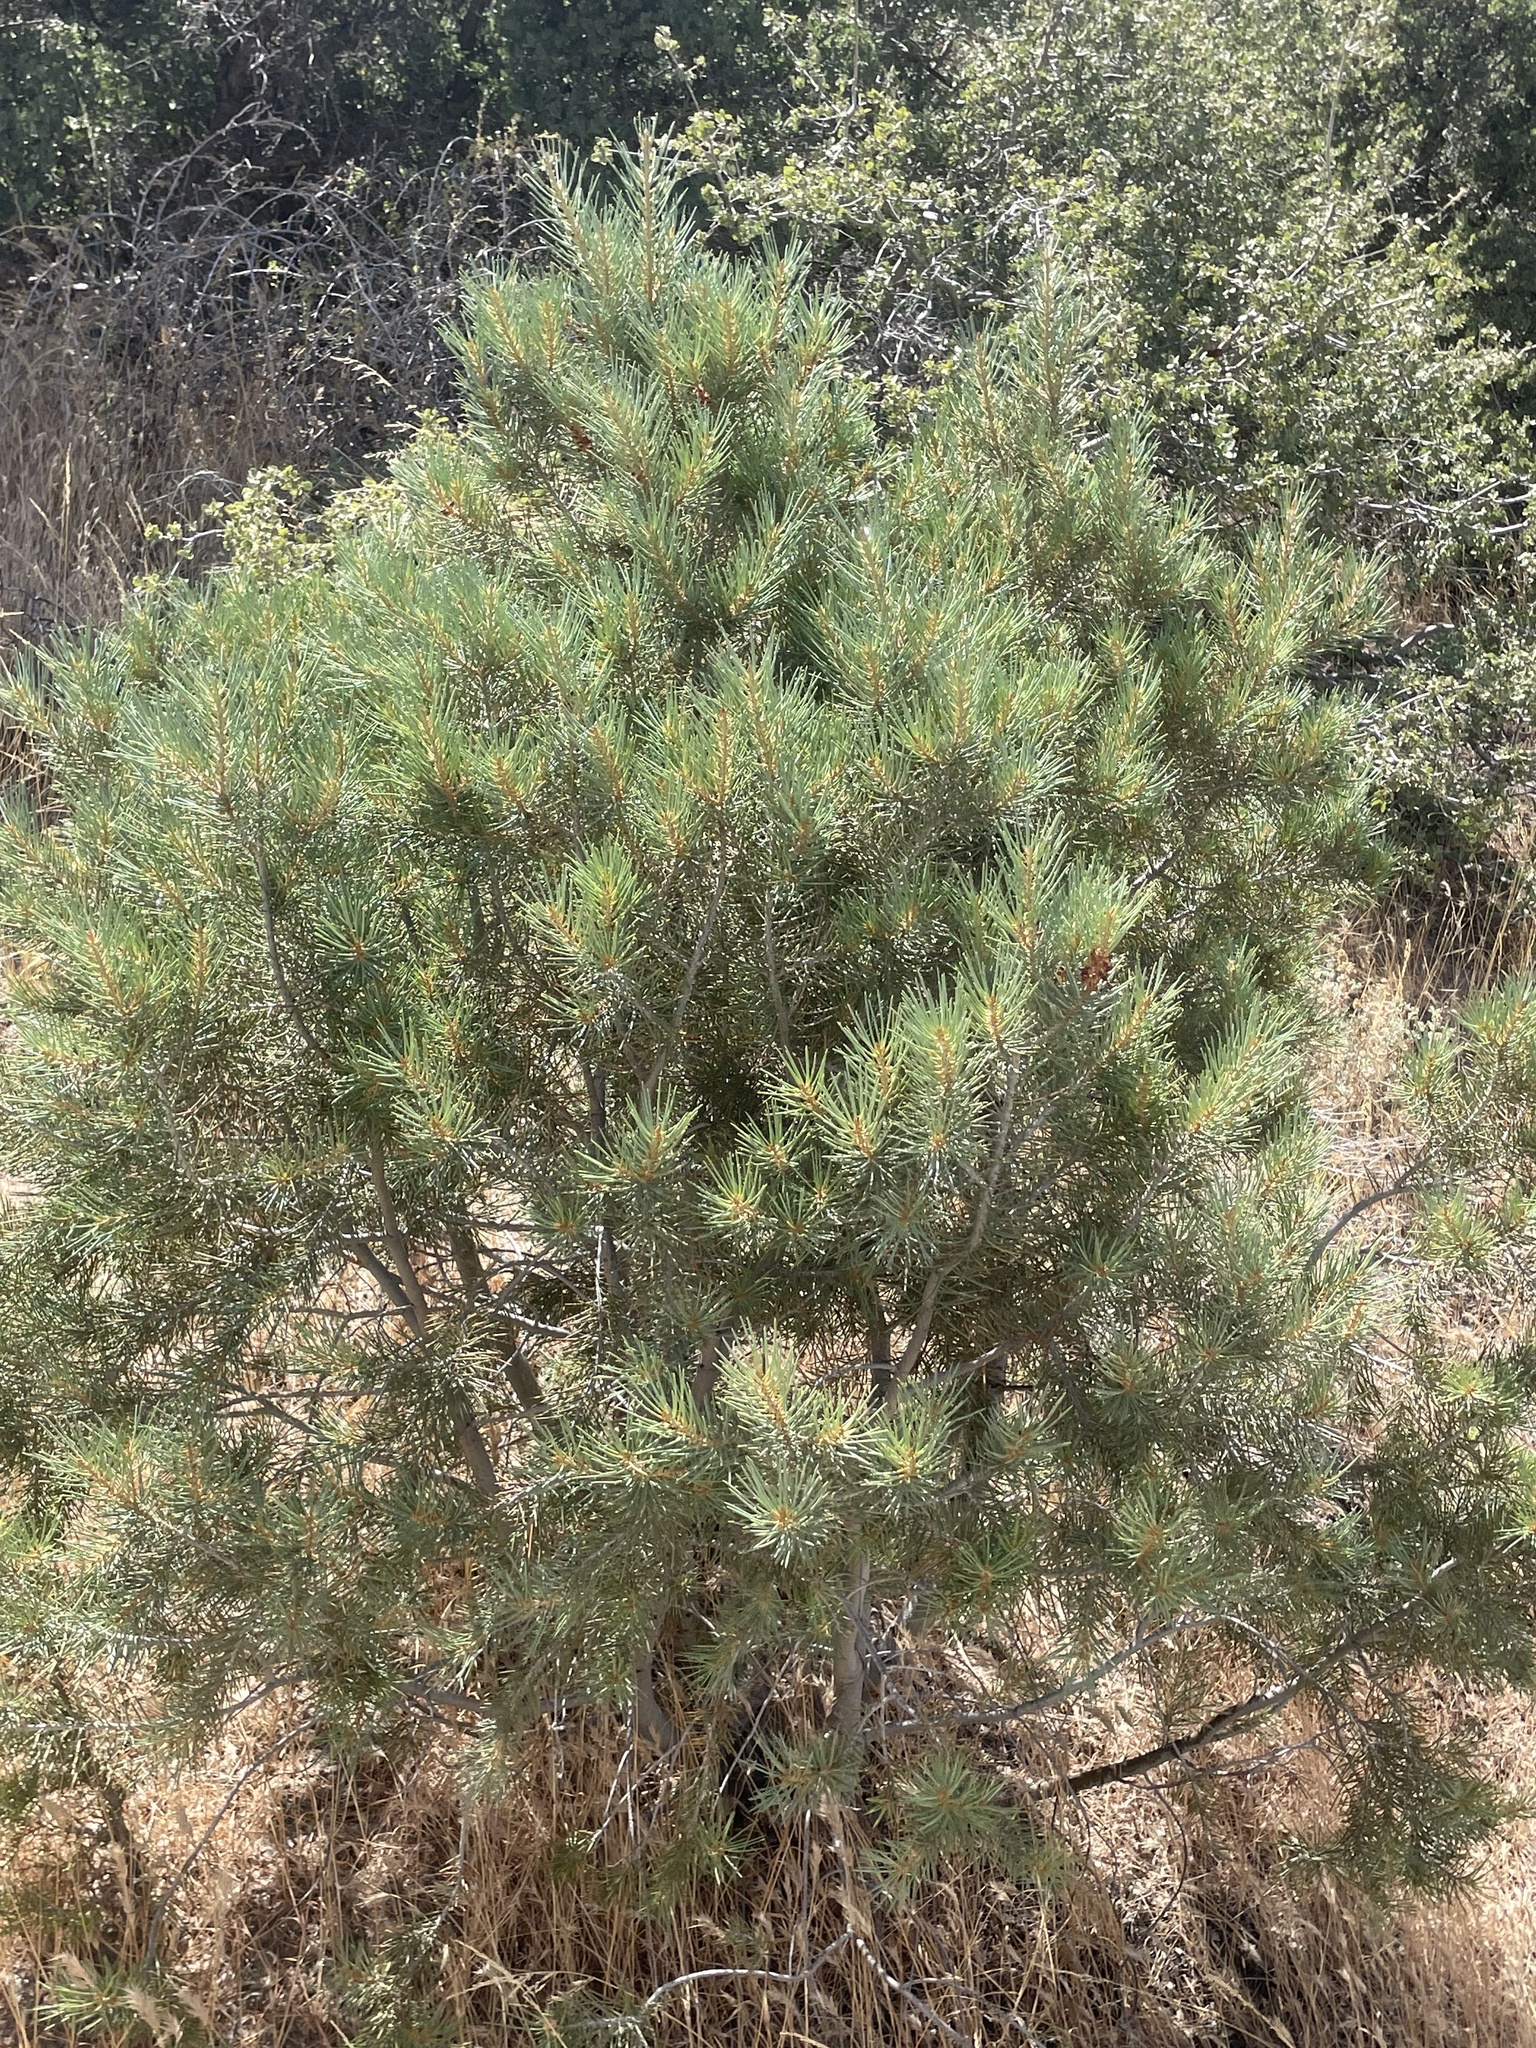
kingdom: Plantae
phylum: Tracheophyta
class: Pinopsida
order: Pinales
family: Pinaceae
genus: Pinus
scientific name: Pinus monophylla
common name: One-leaved nut pine
